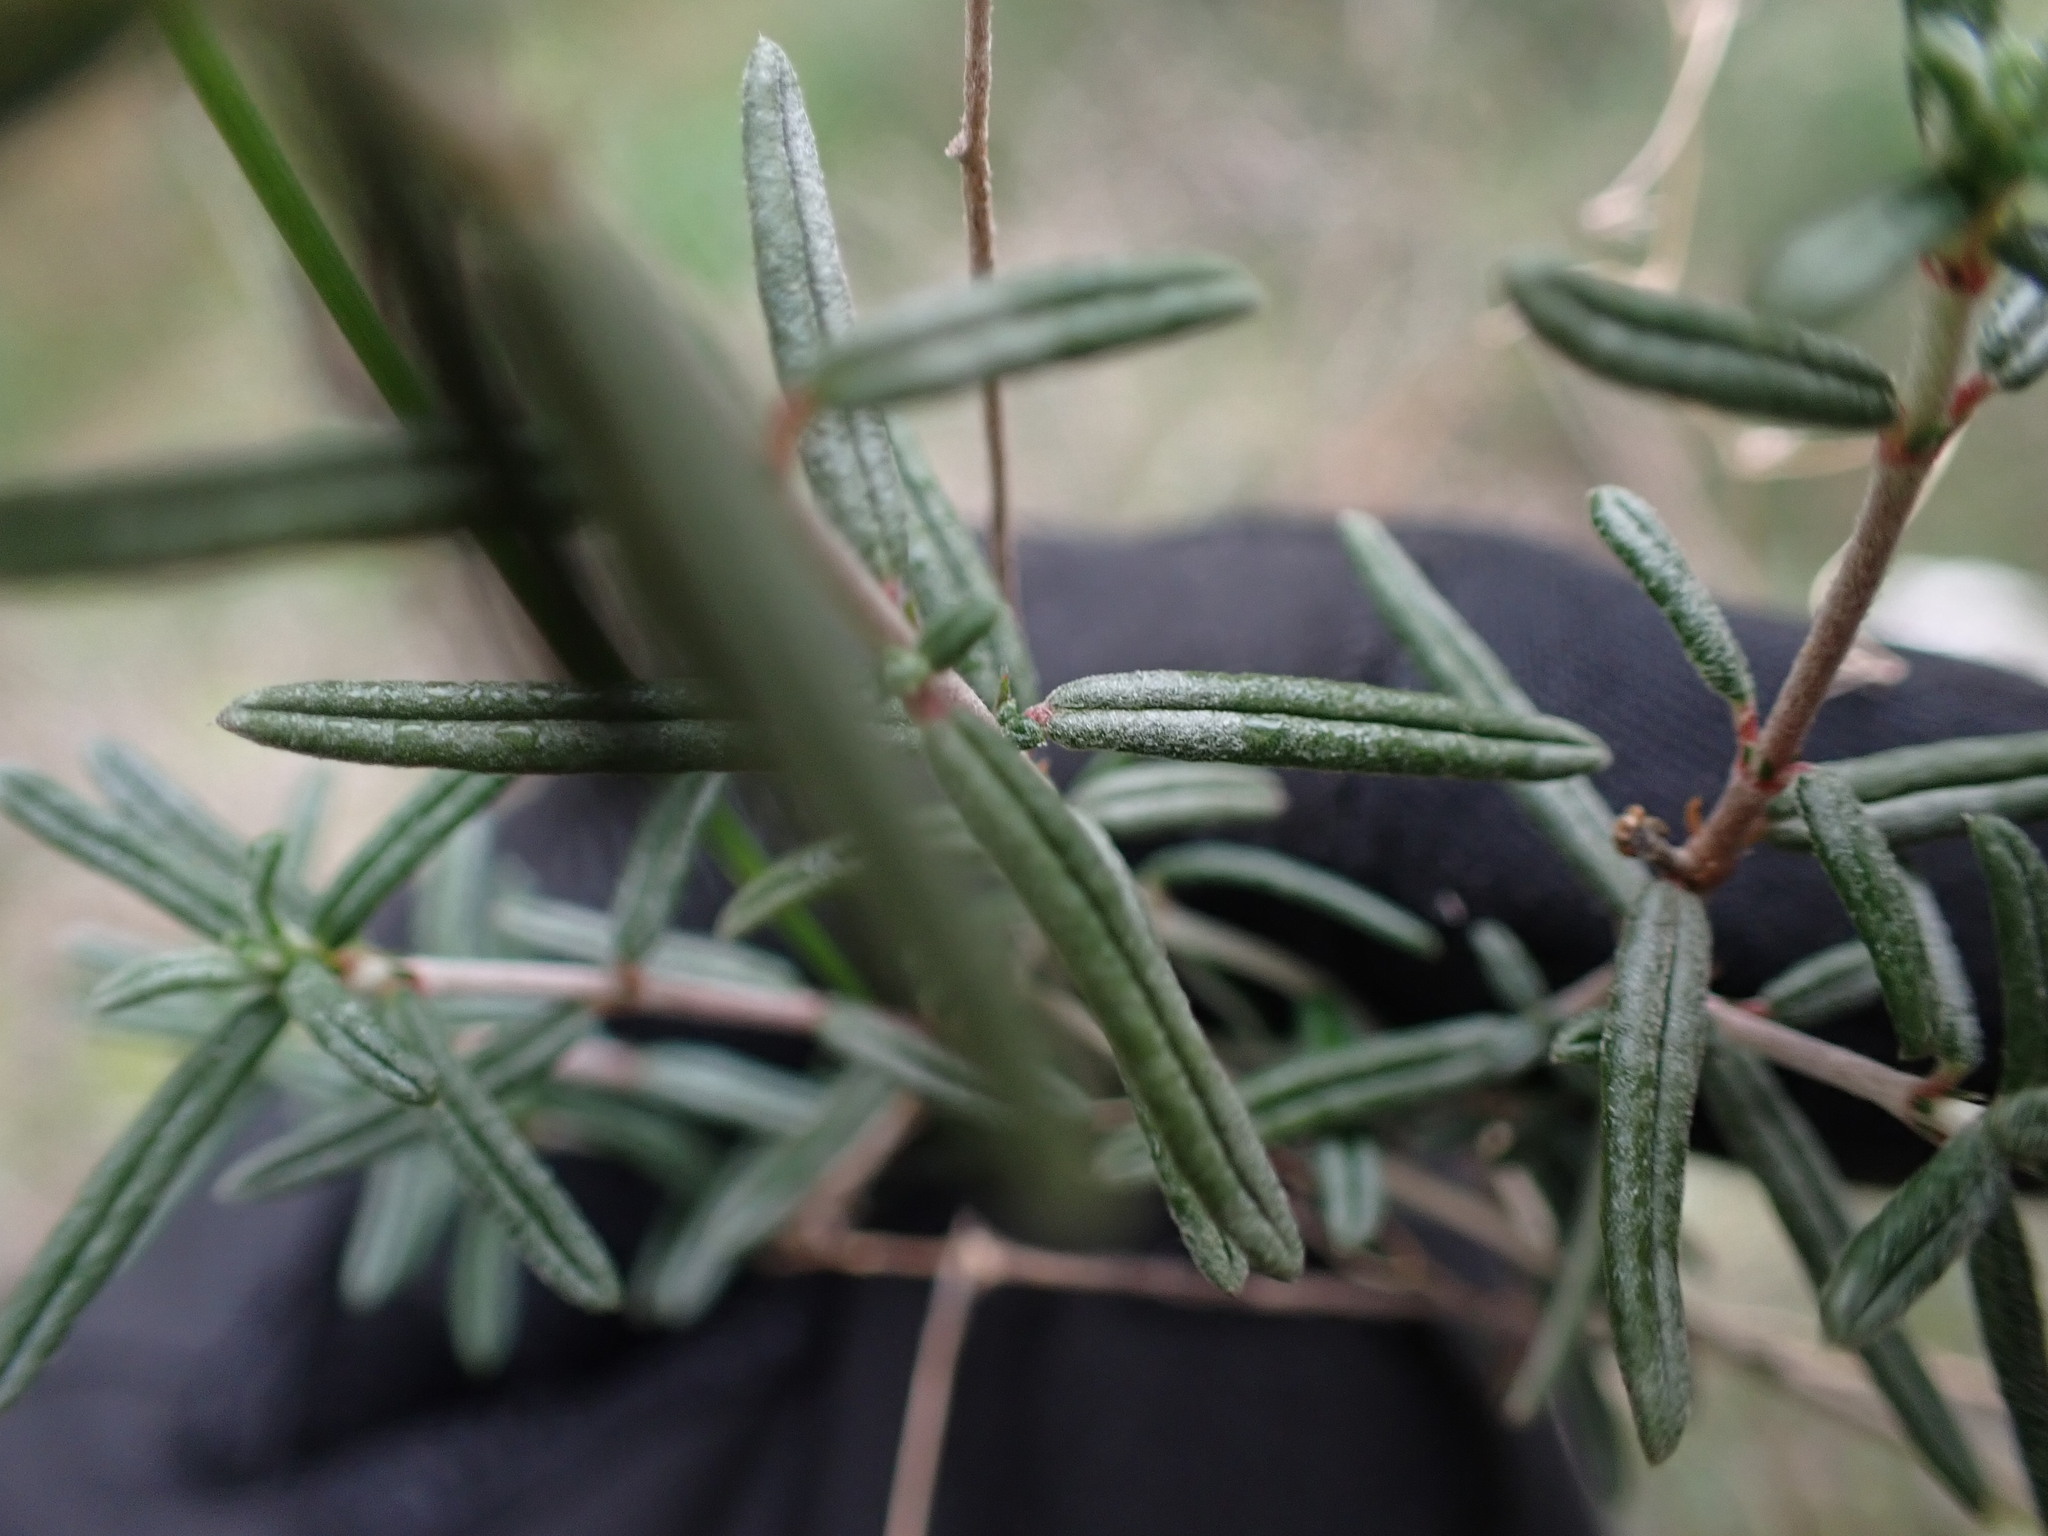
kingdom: Plantae
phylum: Tracheophyta
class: Magnoliopsida
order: Malvales
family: Cistaceae
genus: Helianthemum
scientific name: Helianthemum apenninum
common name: White rock-rose
